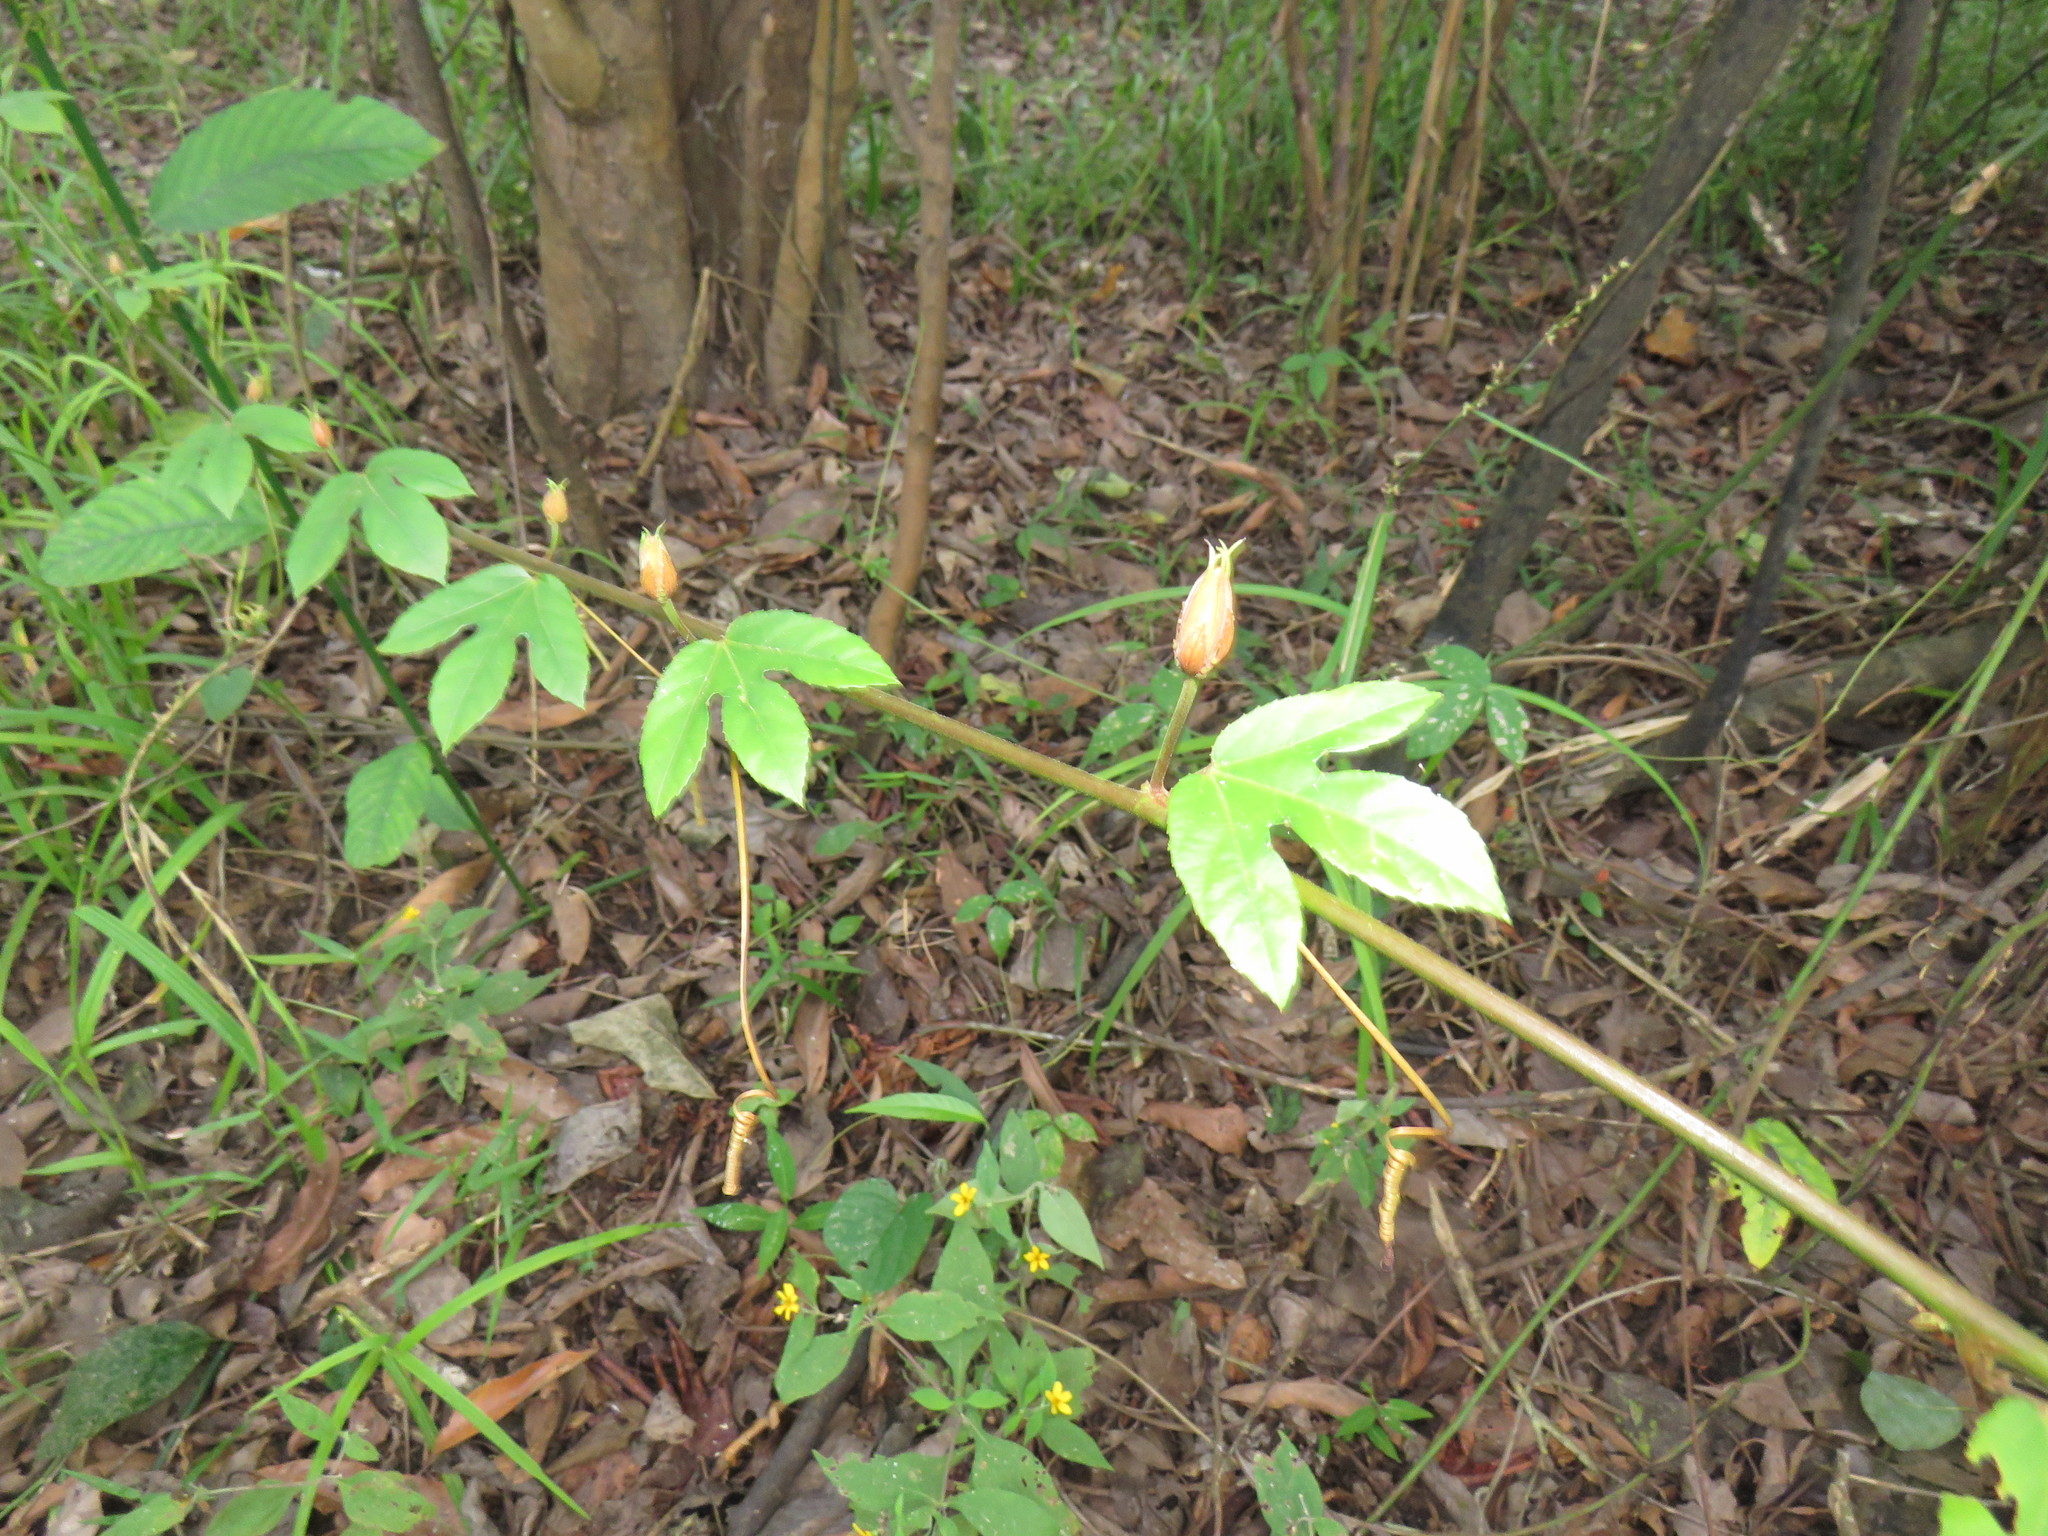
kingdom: Plantae
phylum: Tracheophyta
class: Magnoliopsida
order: Malpighiales
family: Passifloraceae
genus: Passiflora
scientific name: Passiflora quadriglandulosa
